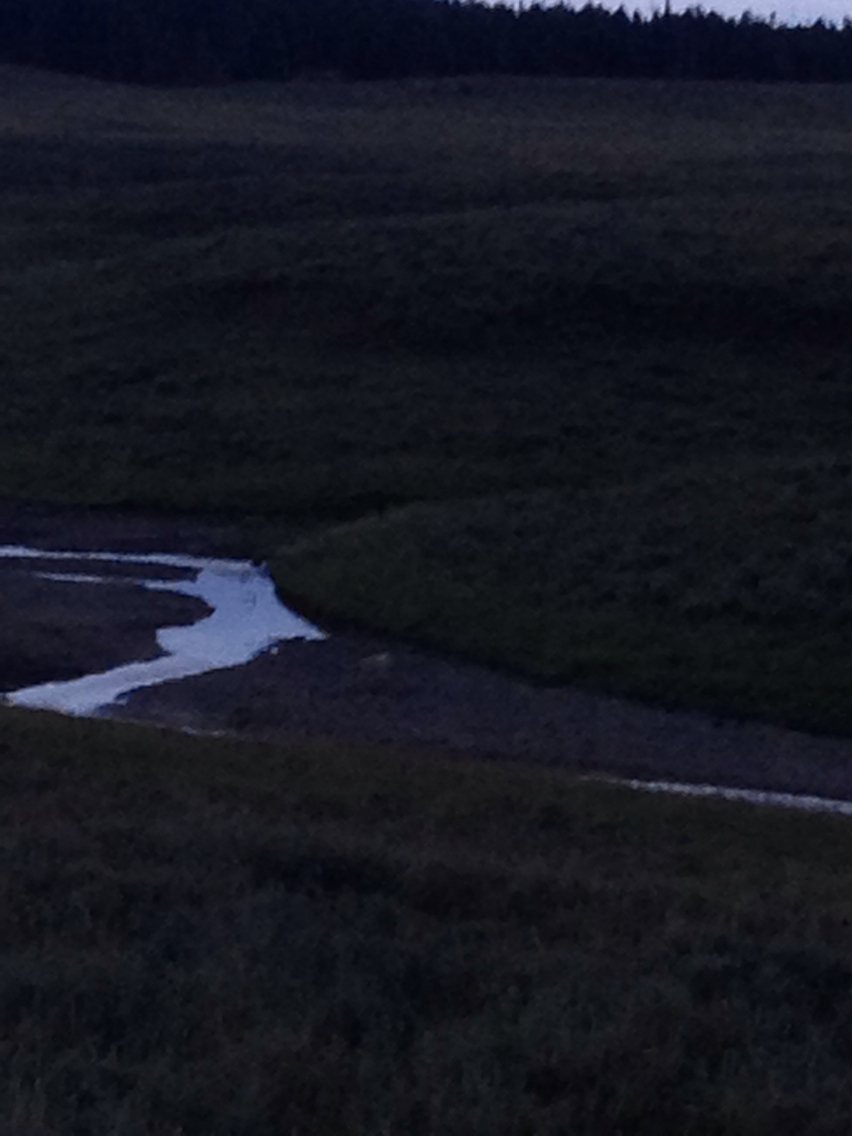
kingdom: Animalia
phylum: Chordata
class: Mammalia
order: Carnivora
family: Canidae
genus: Canis
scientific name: Canis lupus
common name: Gray wolf
